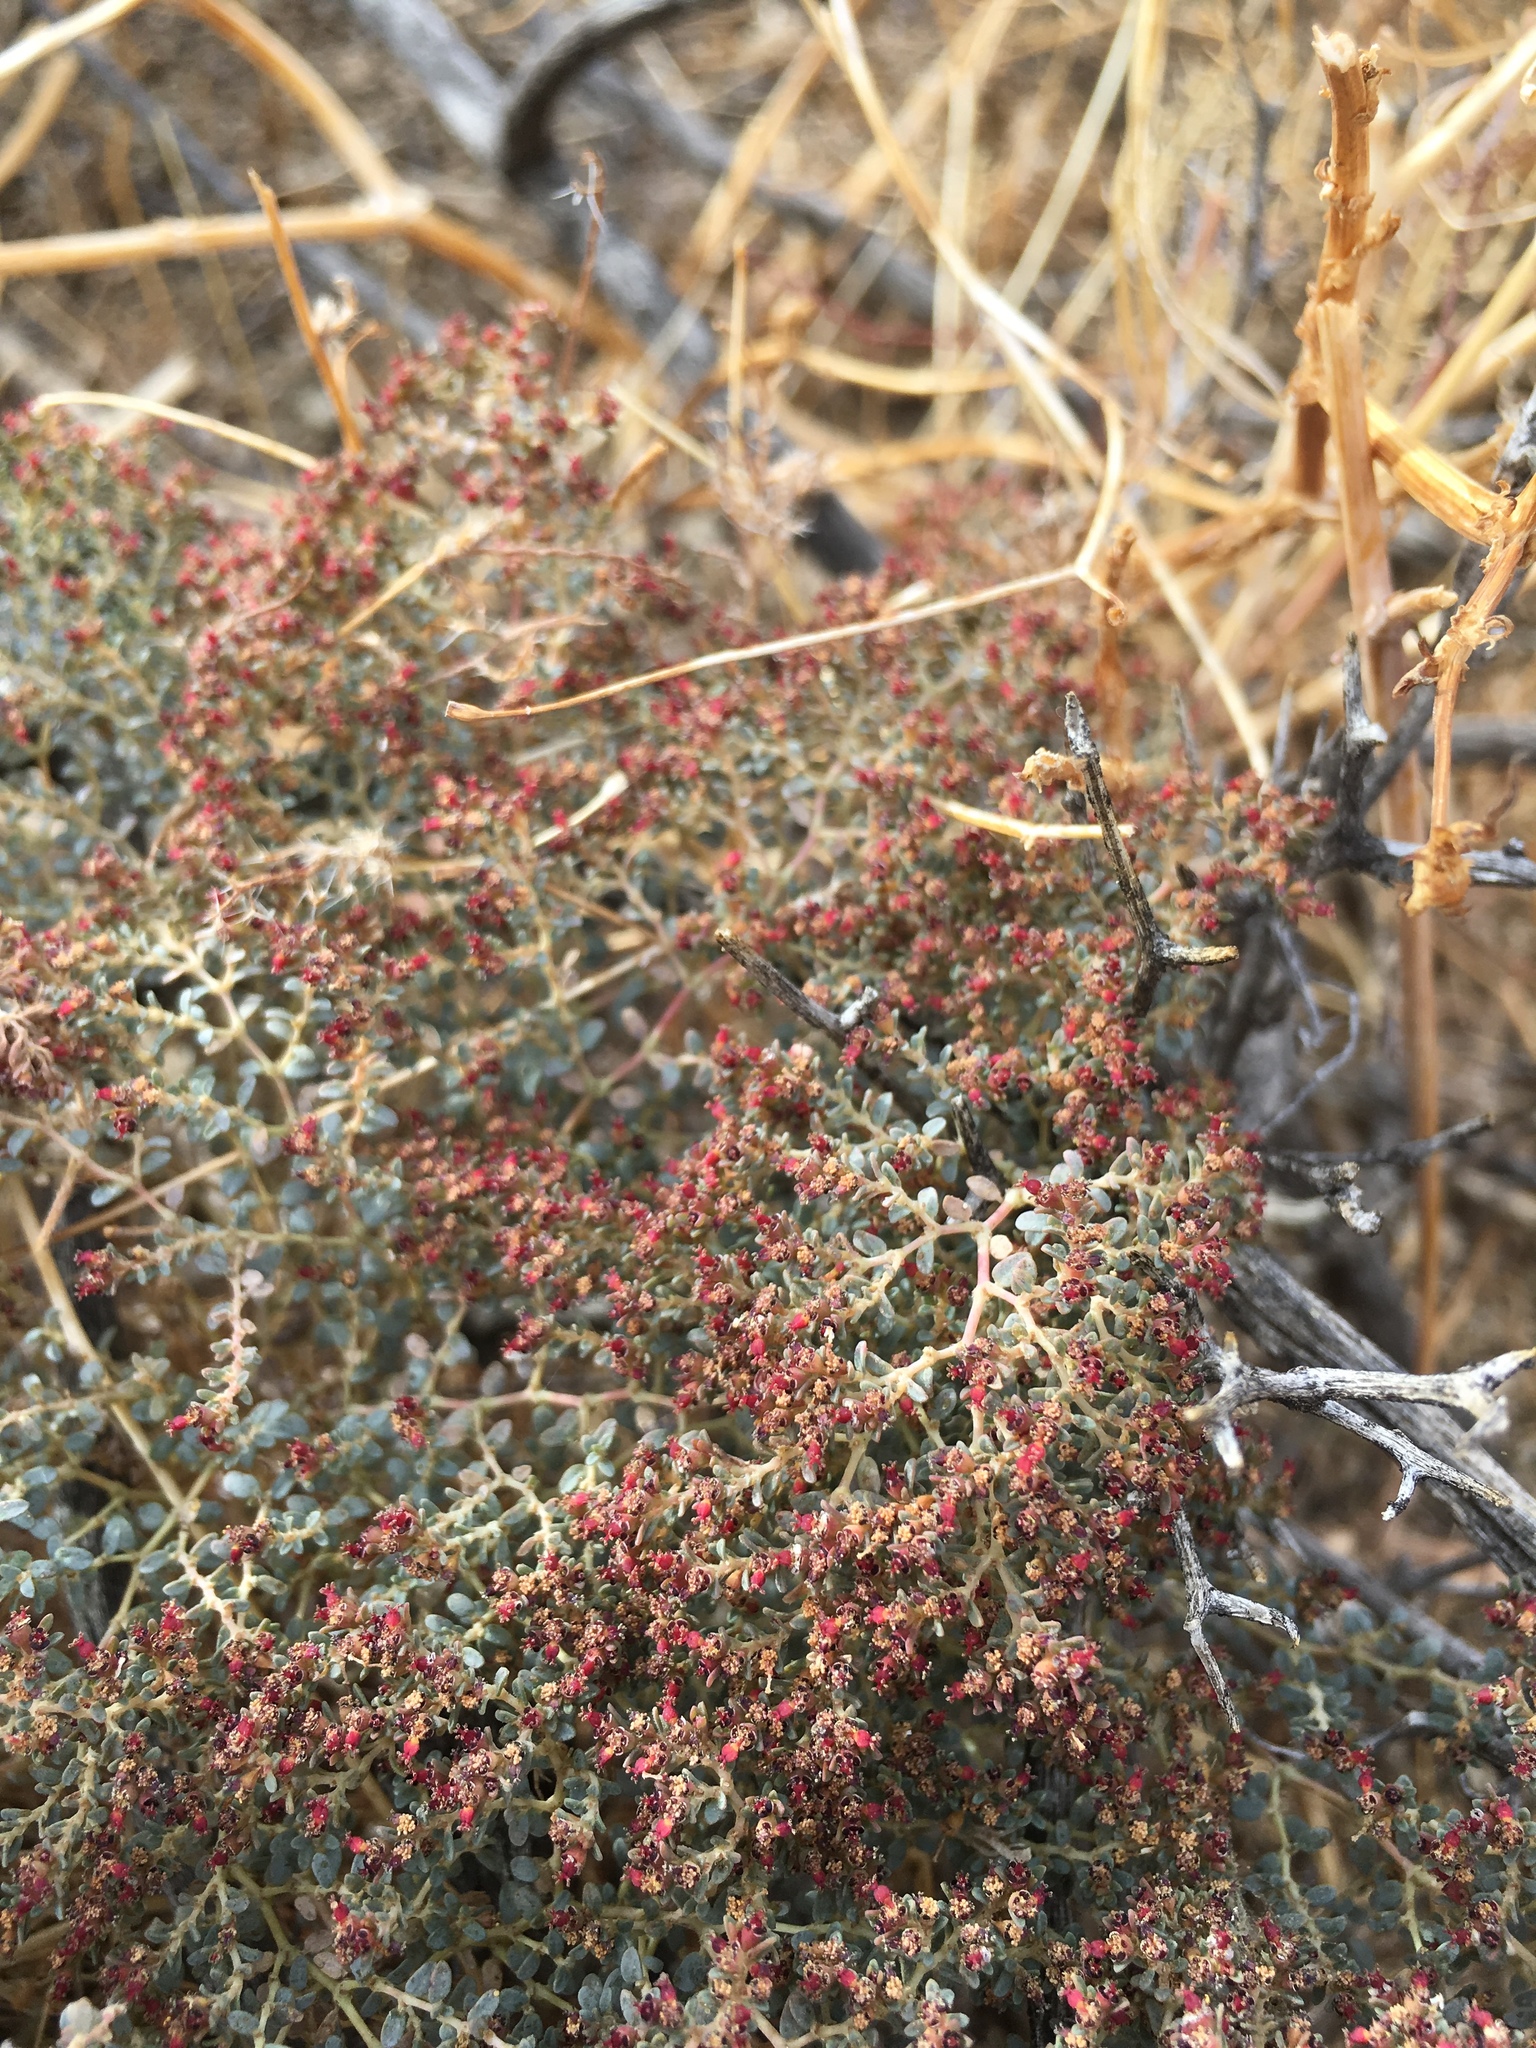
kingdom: Plantae
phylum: Tracheophyta
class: Magnoliopsida
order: Malpighiales
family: Euphorbiaceae
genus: Euphorbia
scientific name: Euphorbia polycarpa
